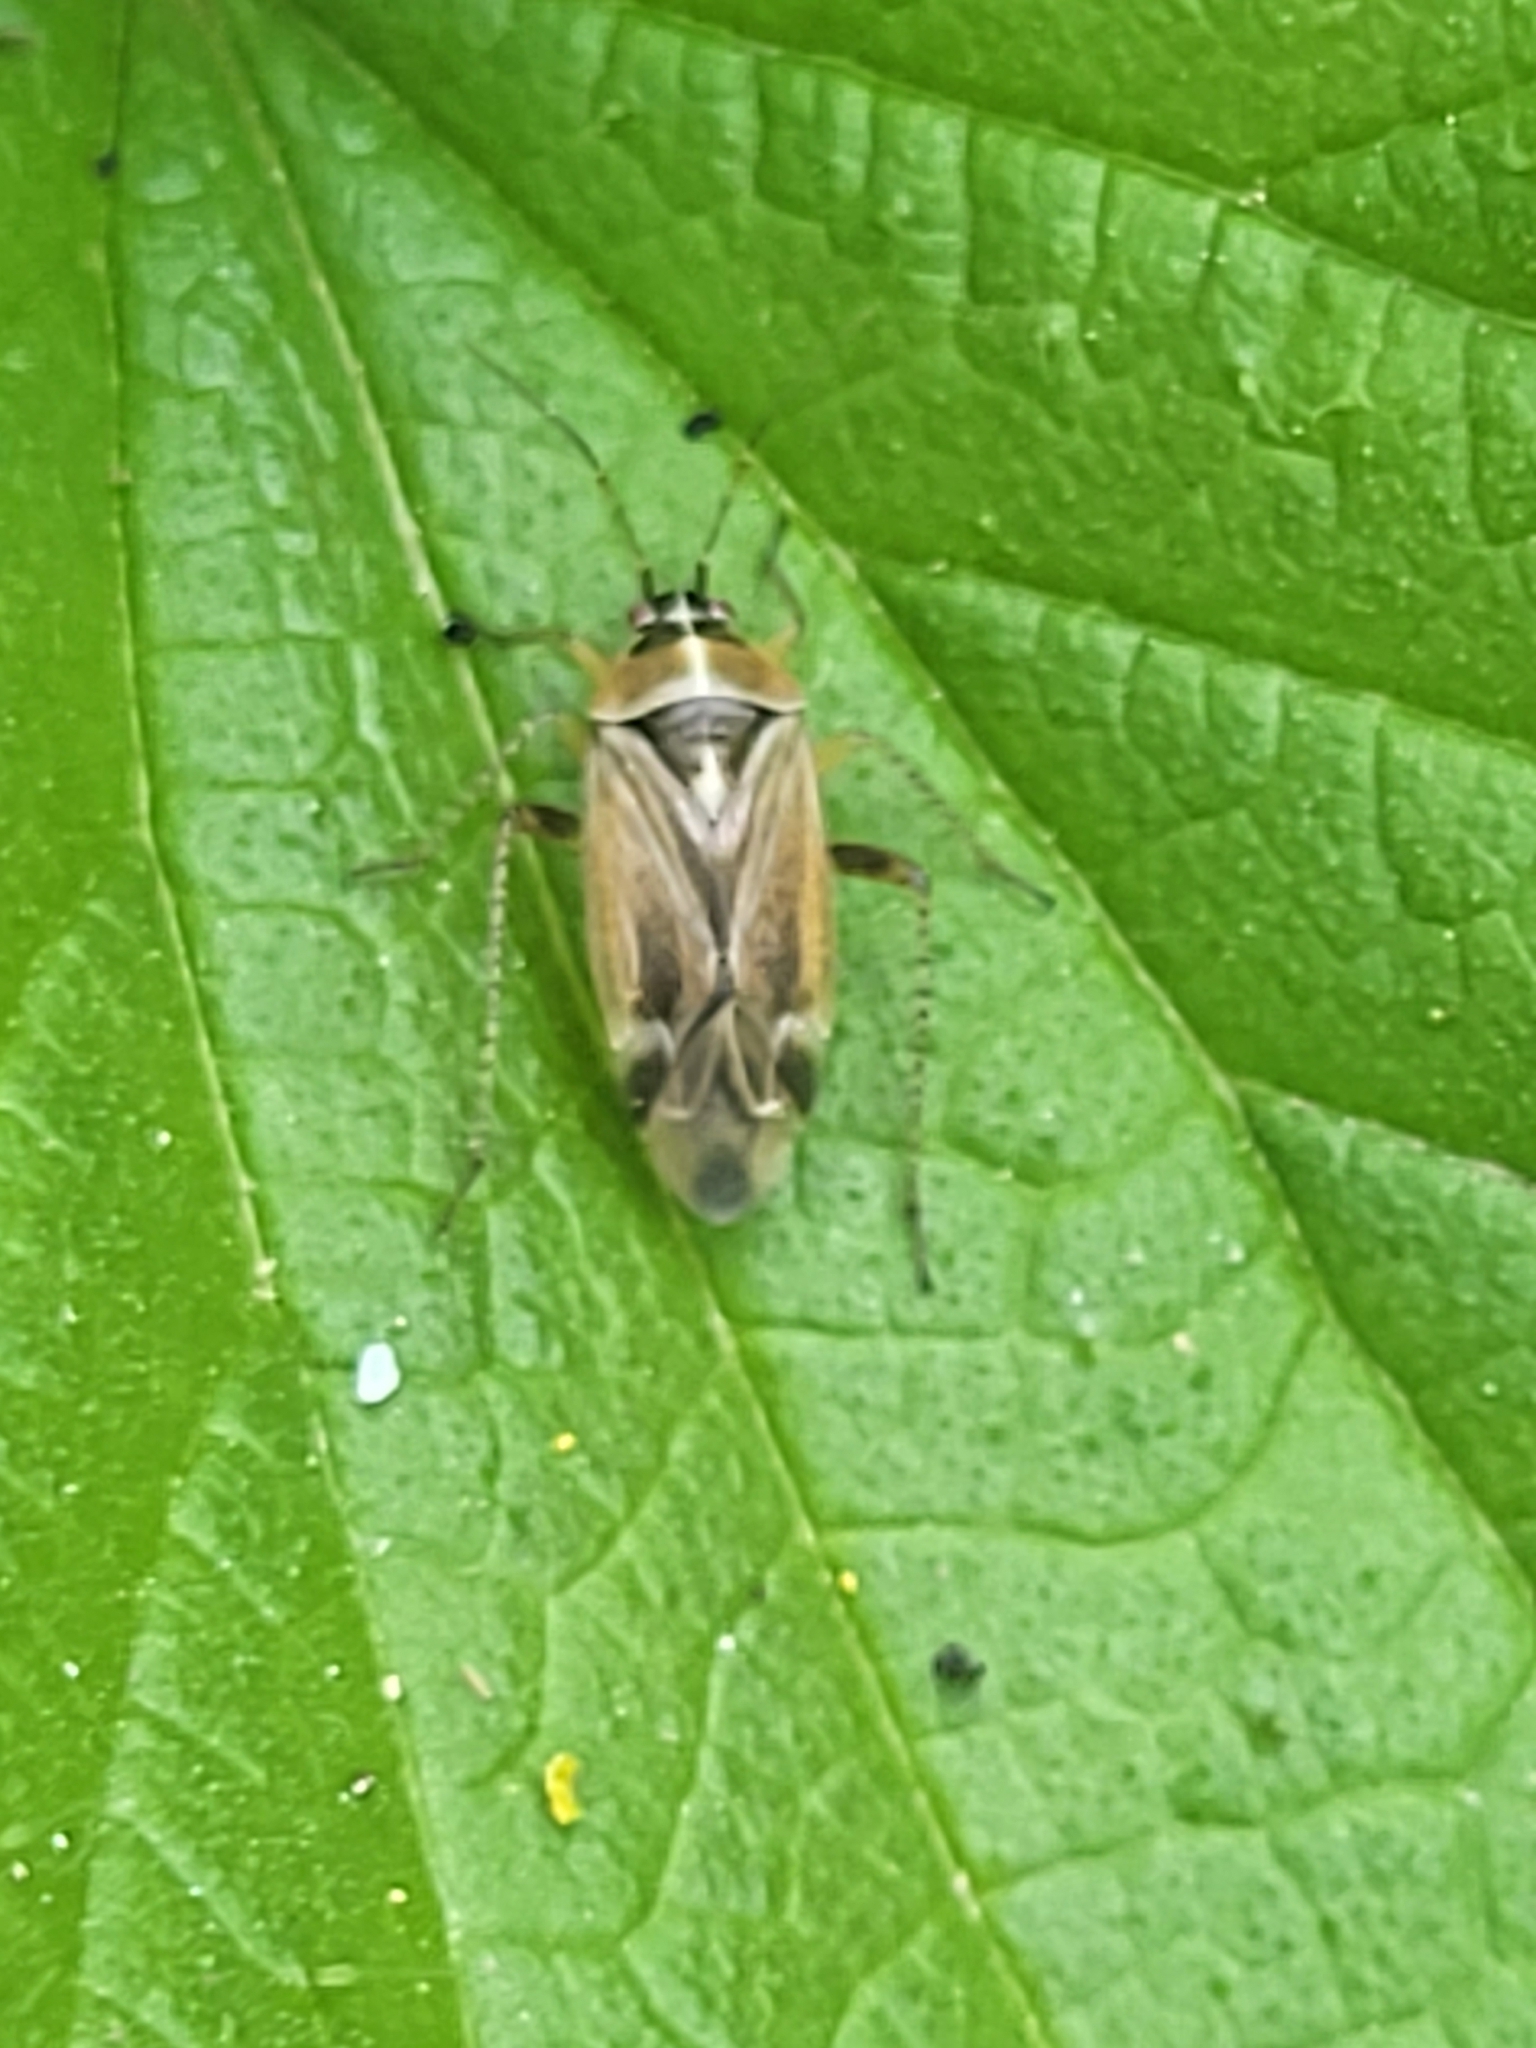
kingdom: Animalia
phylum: Arthropoda
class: Insecta
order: Hemiptera
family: Miridae
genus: Harpocera
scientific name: Harpocera thoracica
